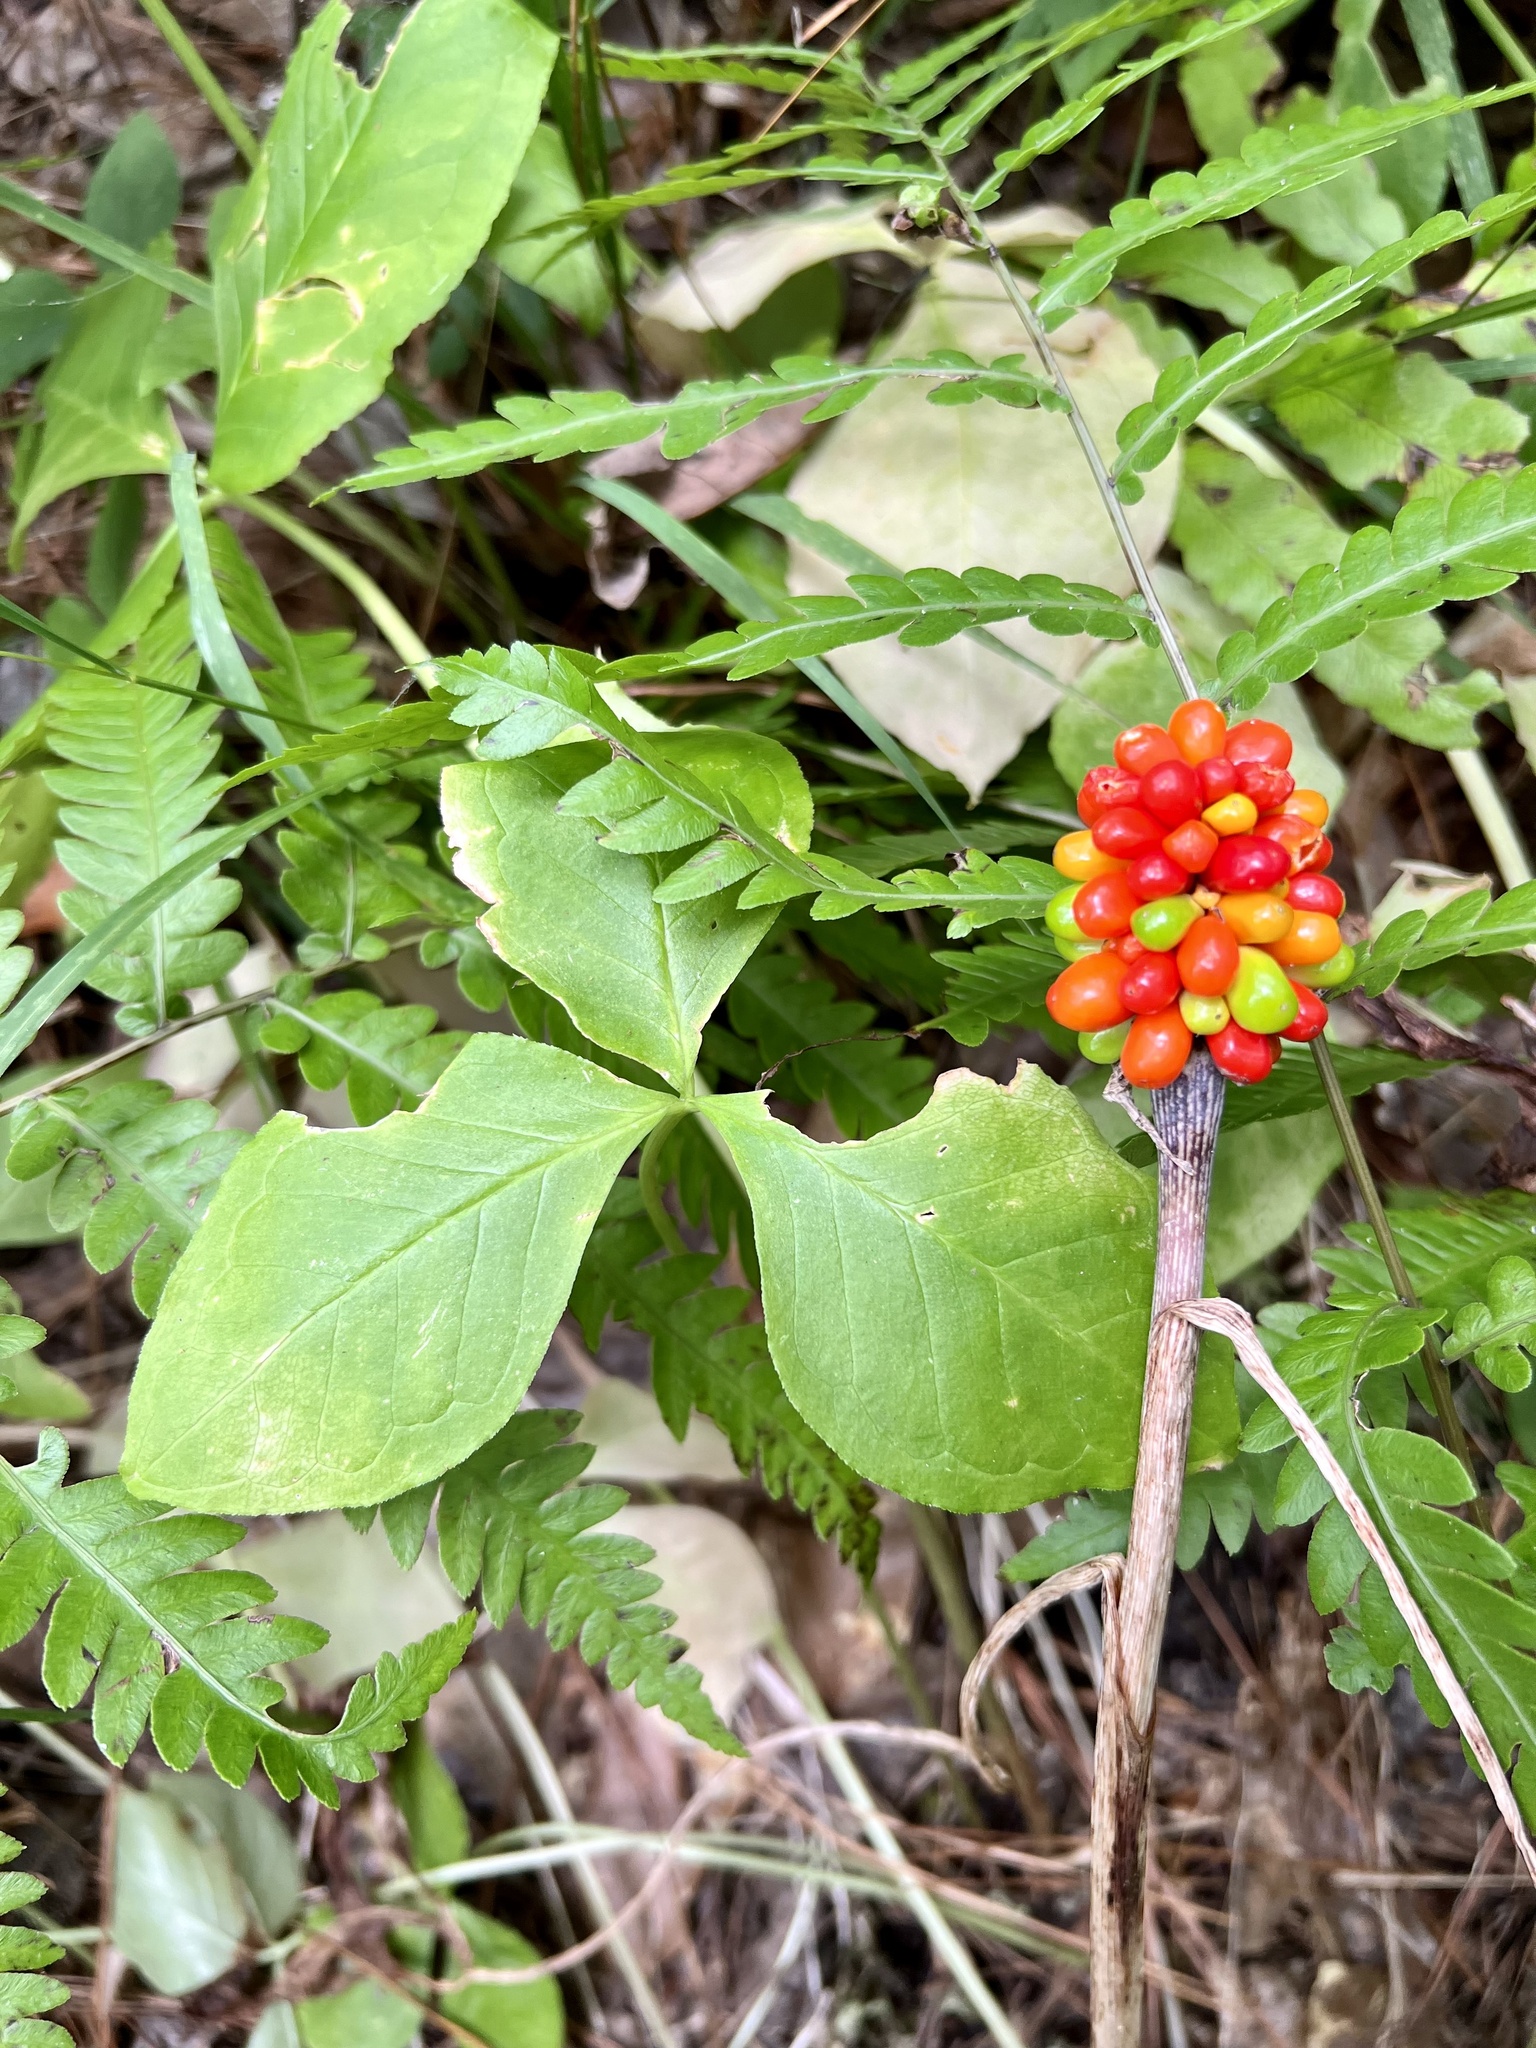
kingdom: Plantae
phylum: Tracheophyta
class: Liliopsida
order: Alismatales
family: Araceae
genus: Arisaema
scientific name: Arisaema triphyllum
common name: Jack-in-the-pulpit
